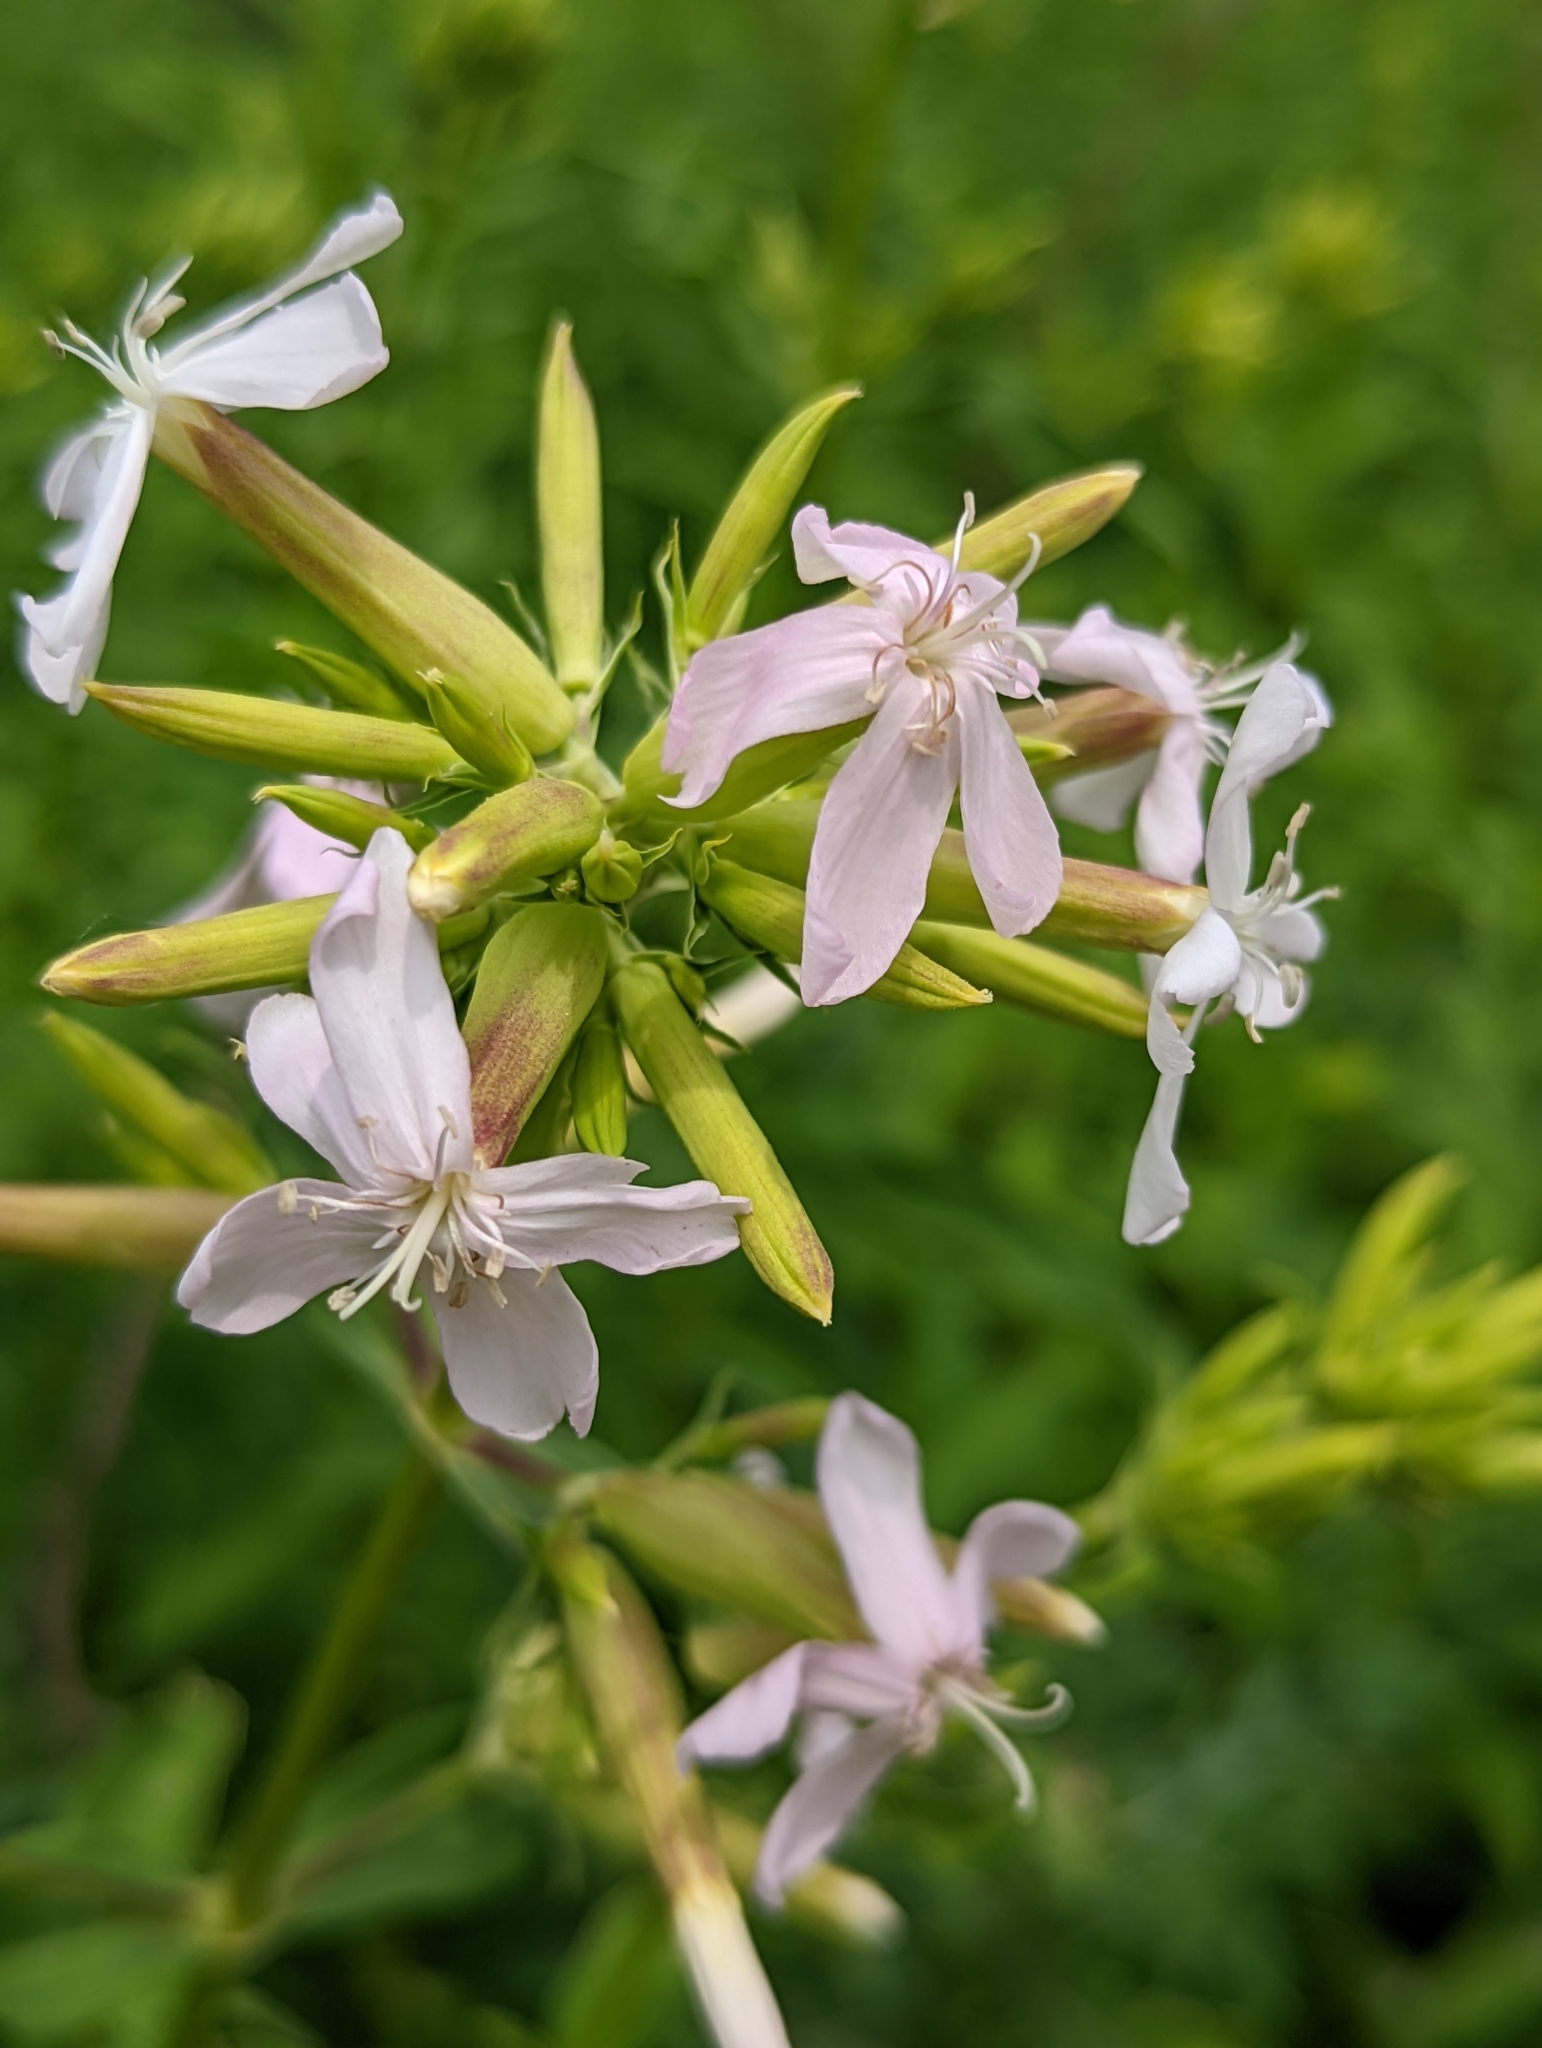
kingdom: Plantae
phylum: Tracheophyta
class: Magnoliopsida
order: Caryophyllales
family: Caryophyllaceae
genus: Saponaria
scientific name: Saponaria officinalis
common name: Soapwort
